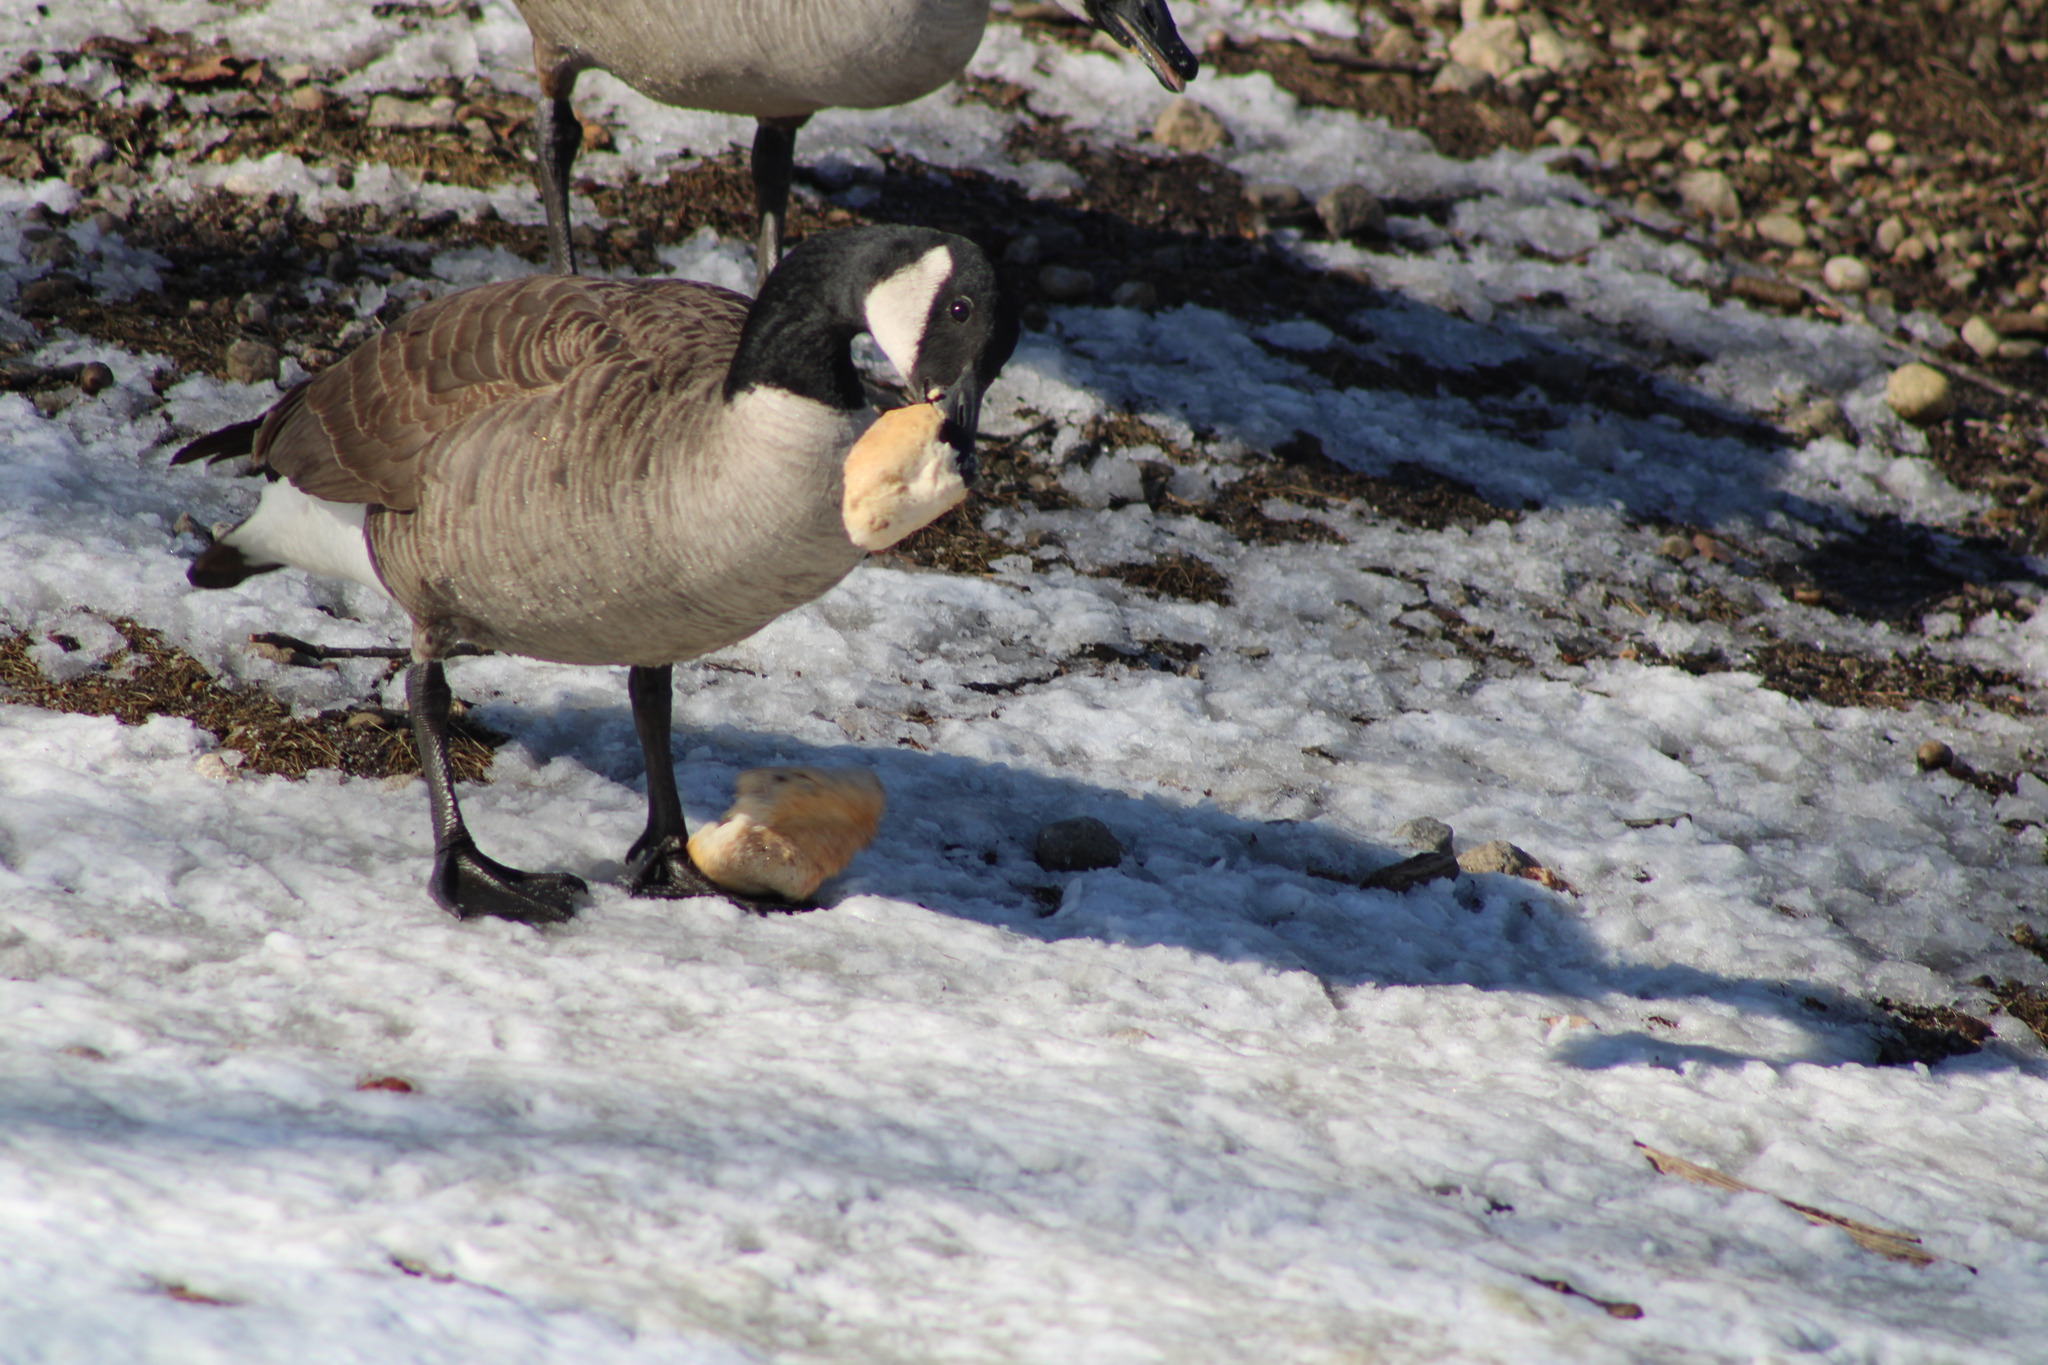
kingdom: Animalia
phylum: Chordata
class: Aves
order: Anseriformes
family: Anatidae
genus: Branta
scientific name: Branta canadensis
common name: Canada goose
